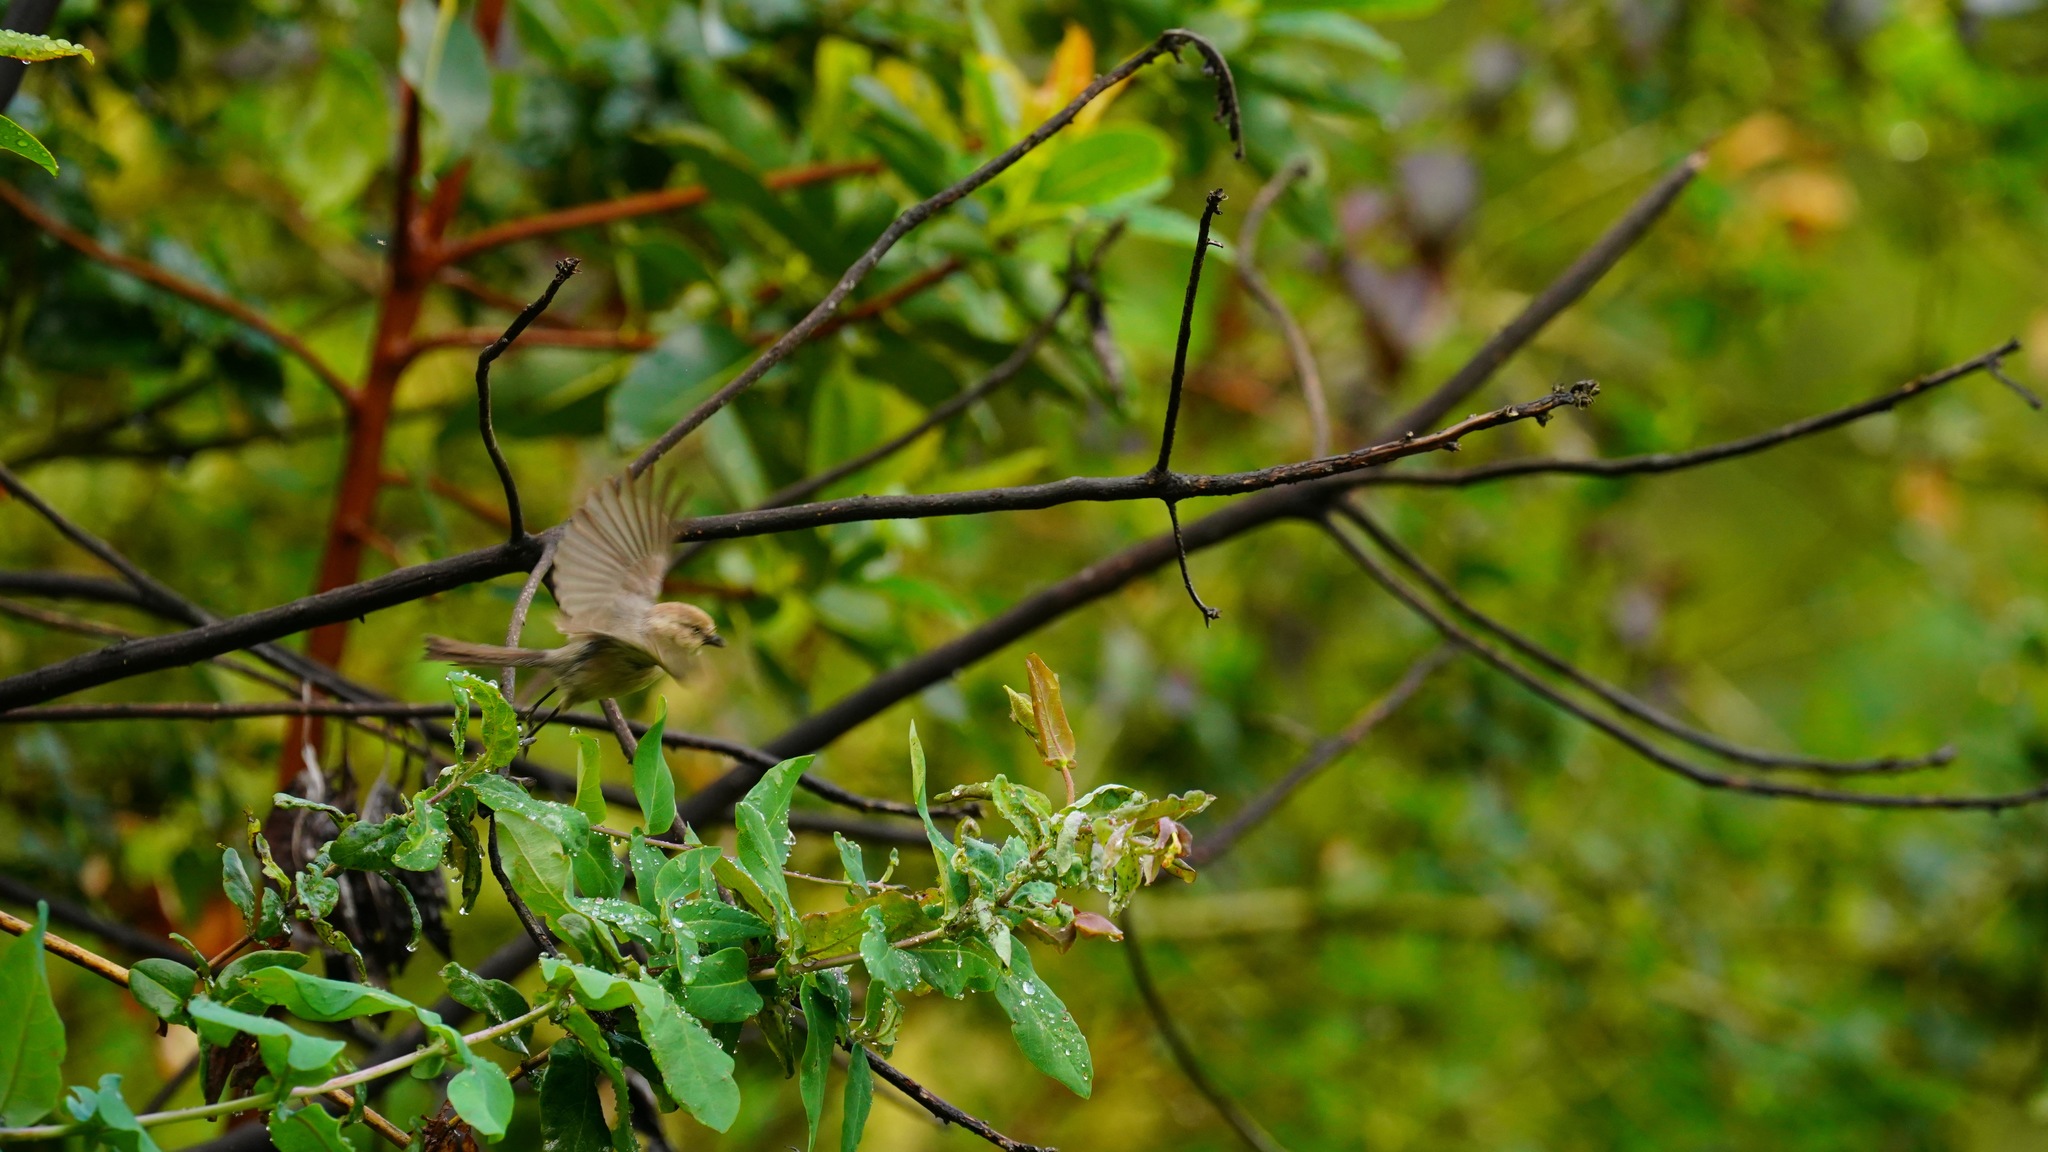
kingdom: Animalia
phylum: Chordata
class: Aves
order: Passeriformes
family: Aegithalidae
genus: Psaltriparus
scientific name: Psaltriparus minimus
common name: American bushtit
